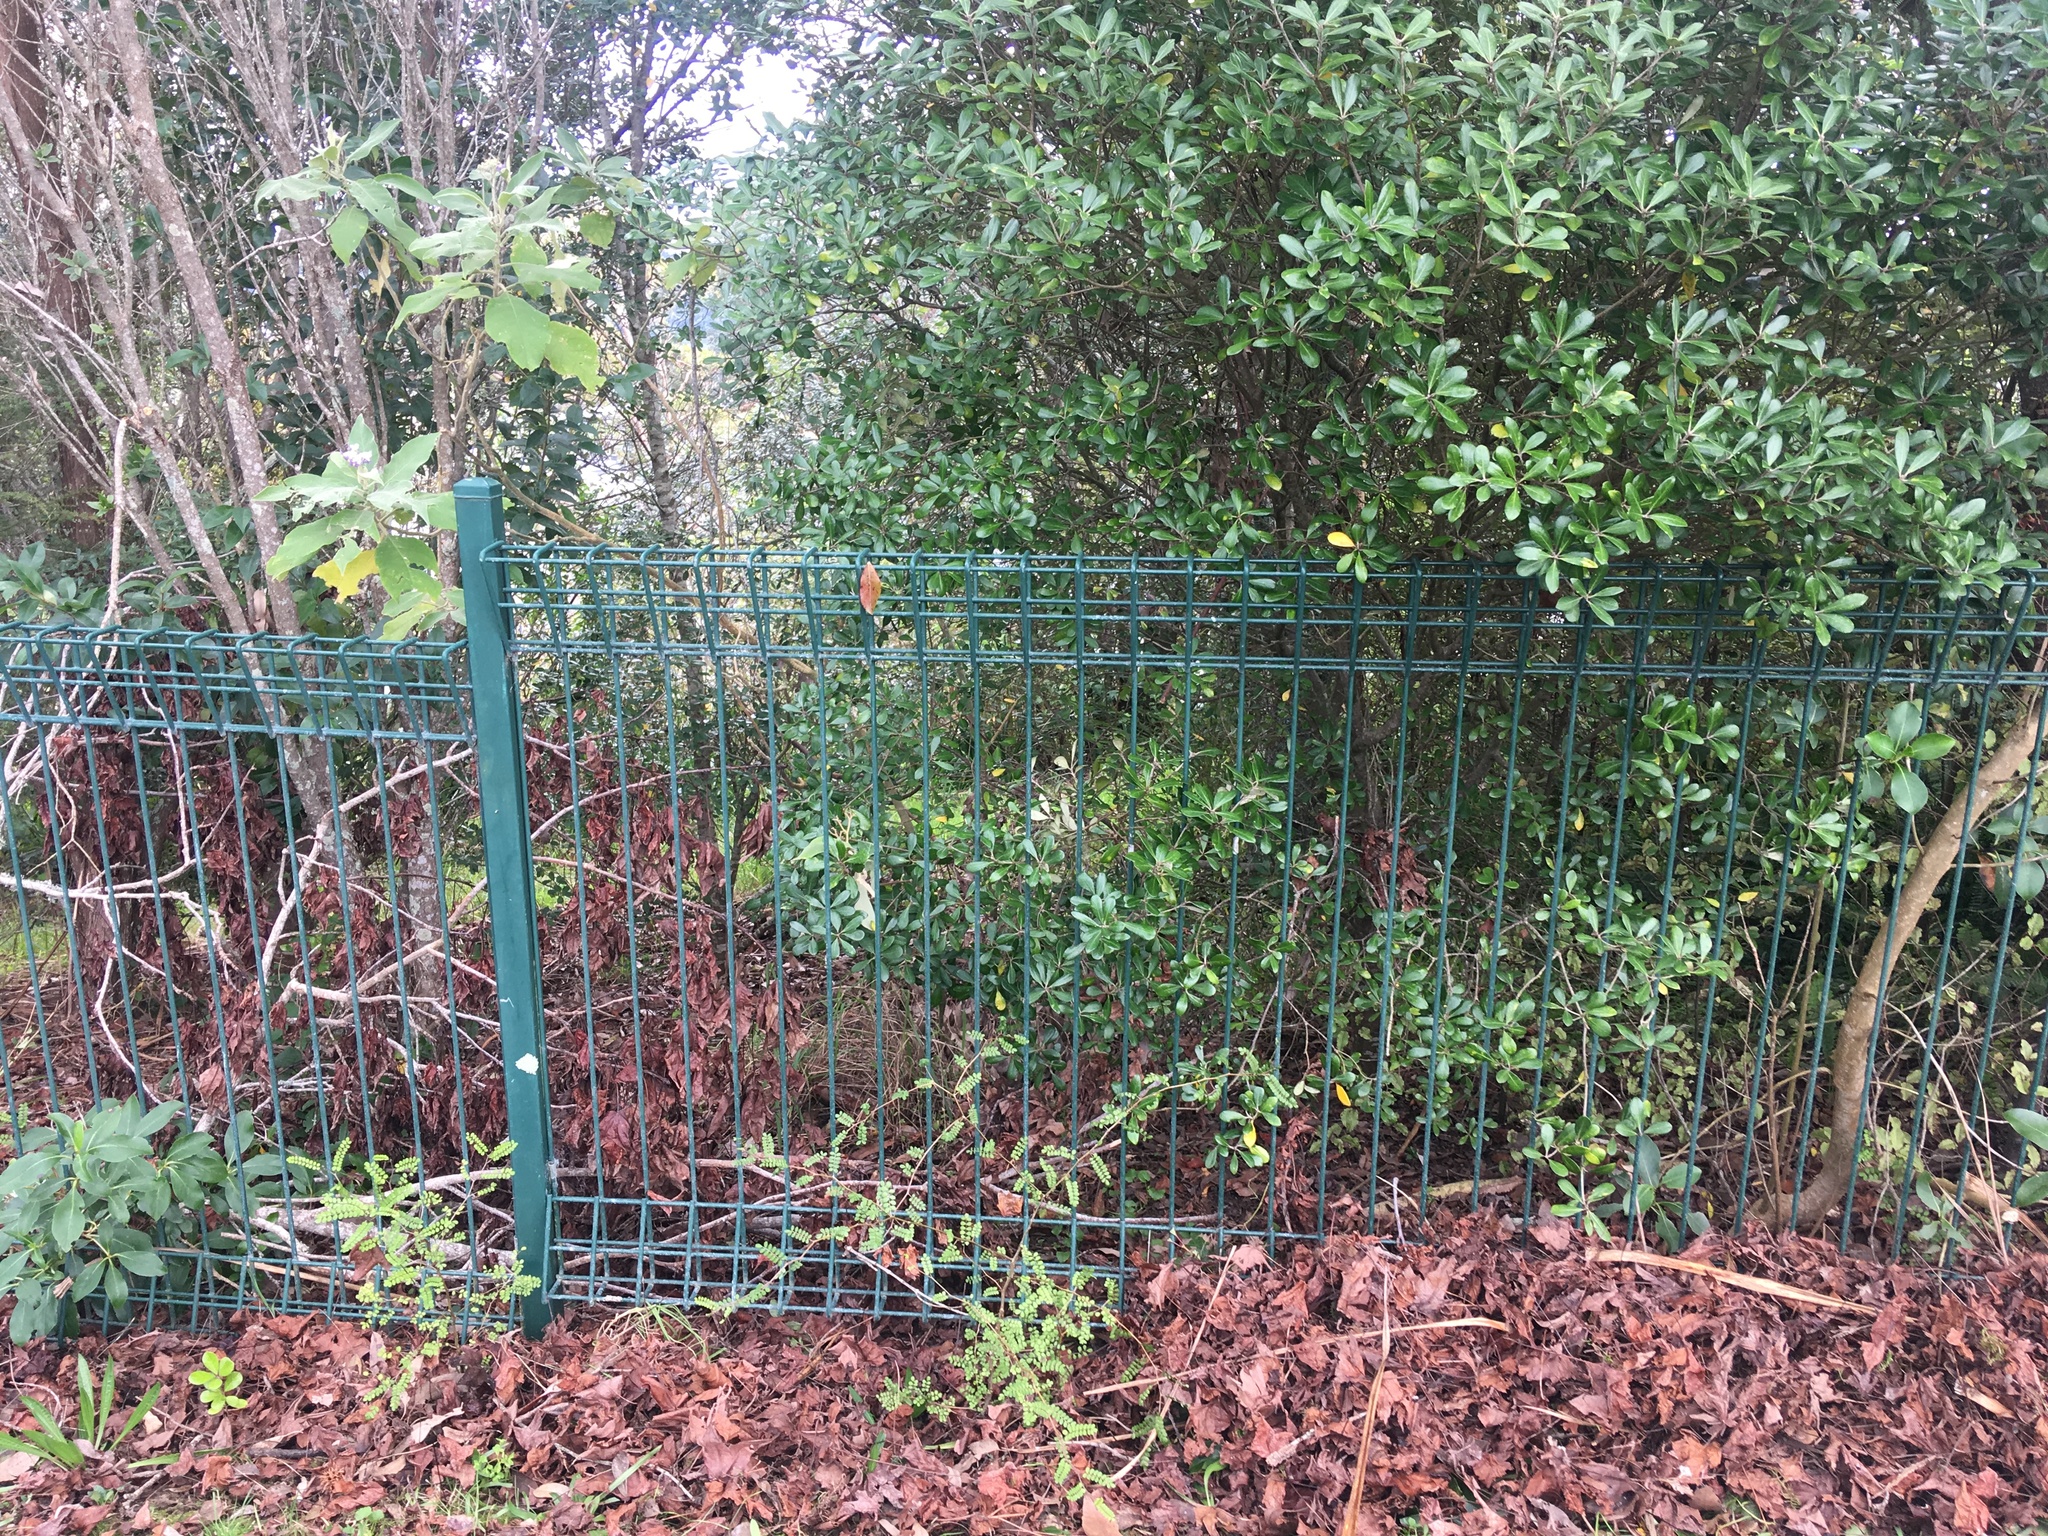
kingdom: Plantae
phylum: Tracheophyta
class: Magnoliopsida
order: Apiales
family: Pittosporaceae
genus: Pittosporum
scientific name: Pittosporum crassifolium
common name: Karo
